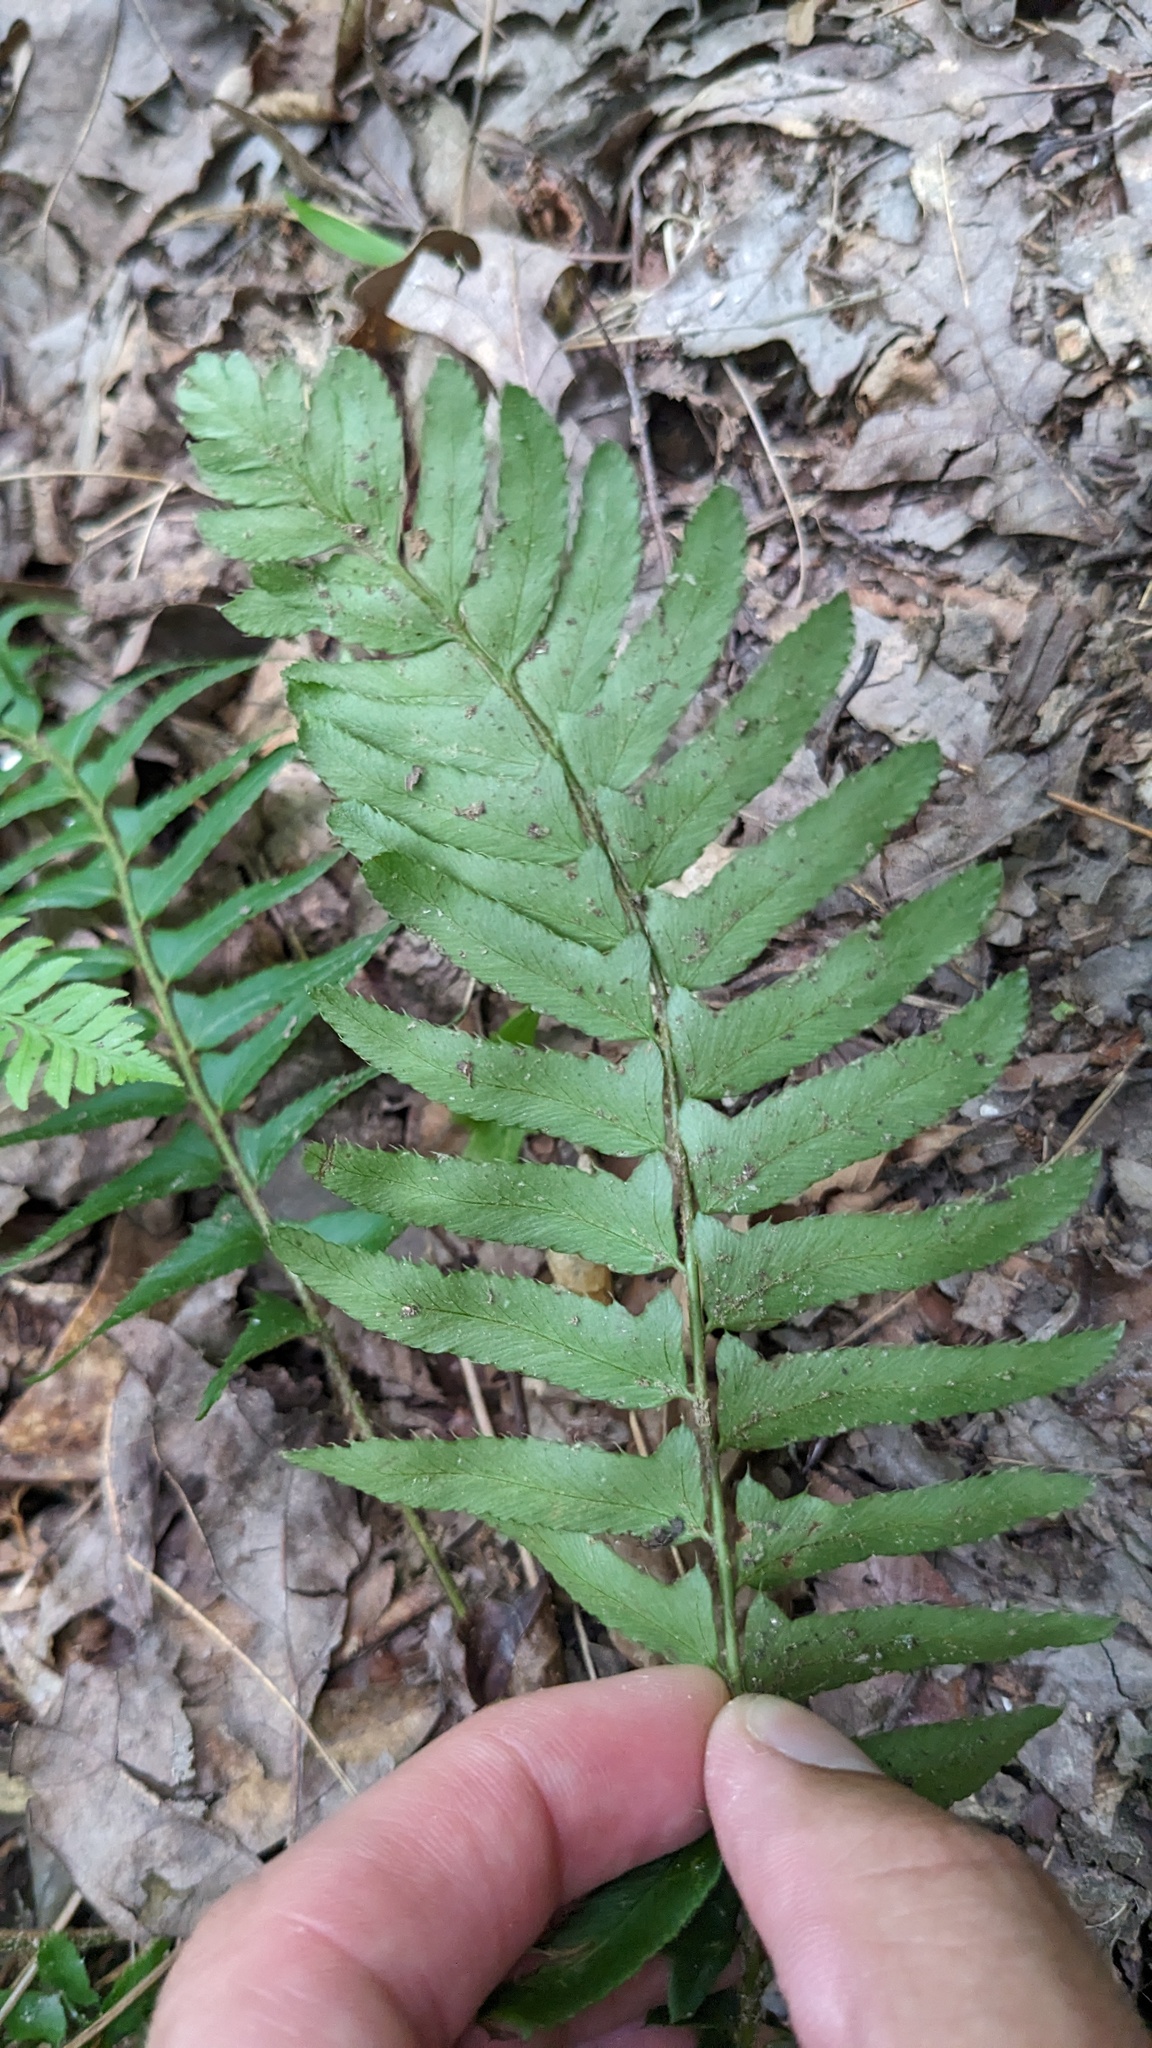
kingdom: Plantae
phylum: Tracheophyta
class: Polypodiopsida
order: Polypodiales
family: Dryopteridaceae
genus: Polystichum
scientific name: Polystichum acrostichoides
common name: Christmas fern
